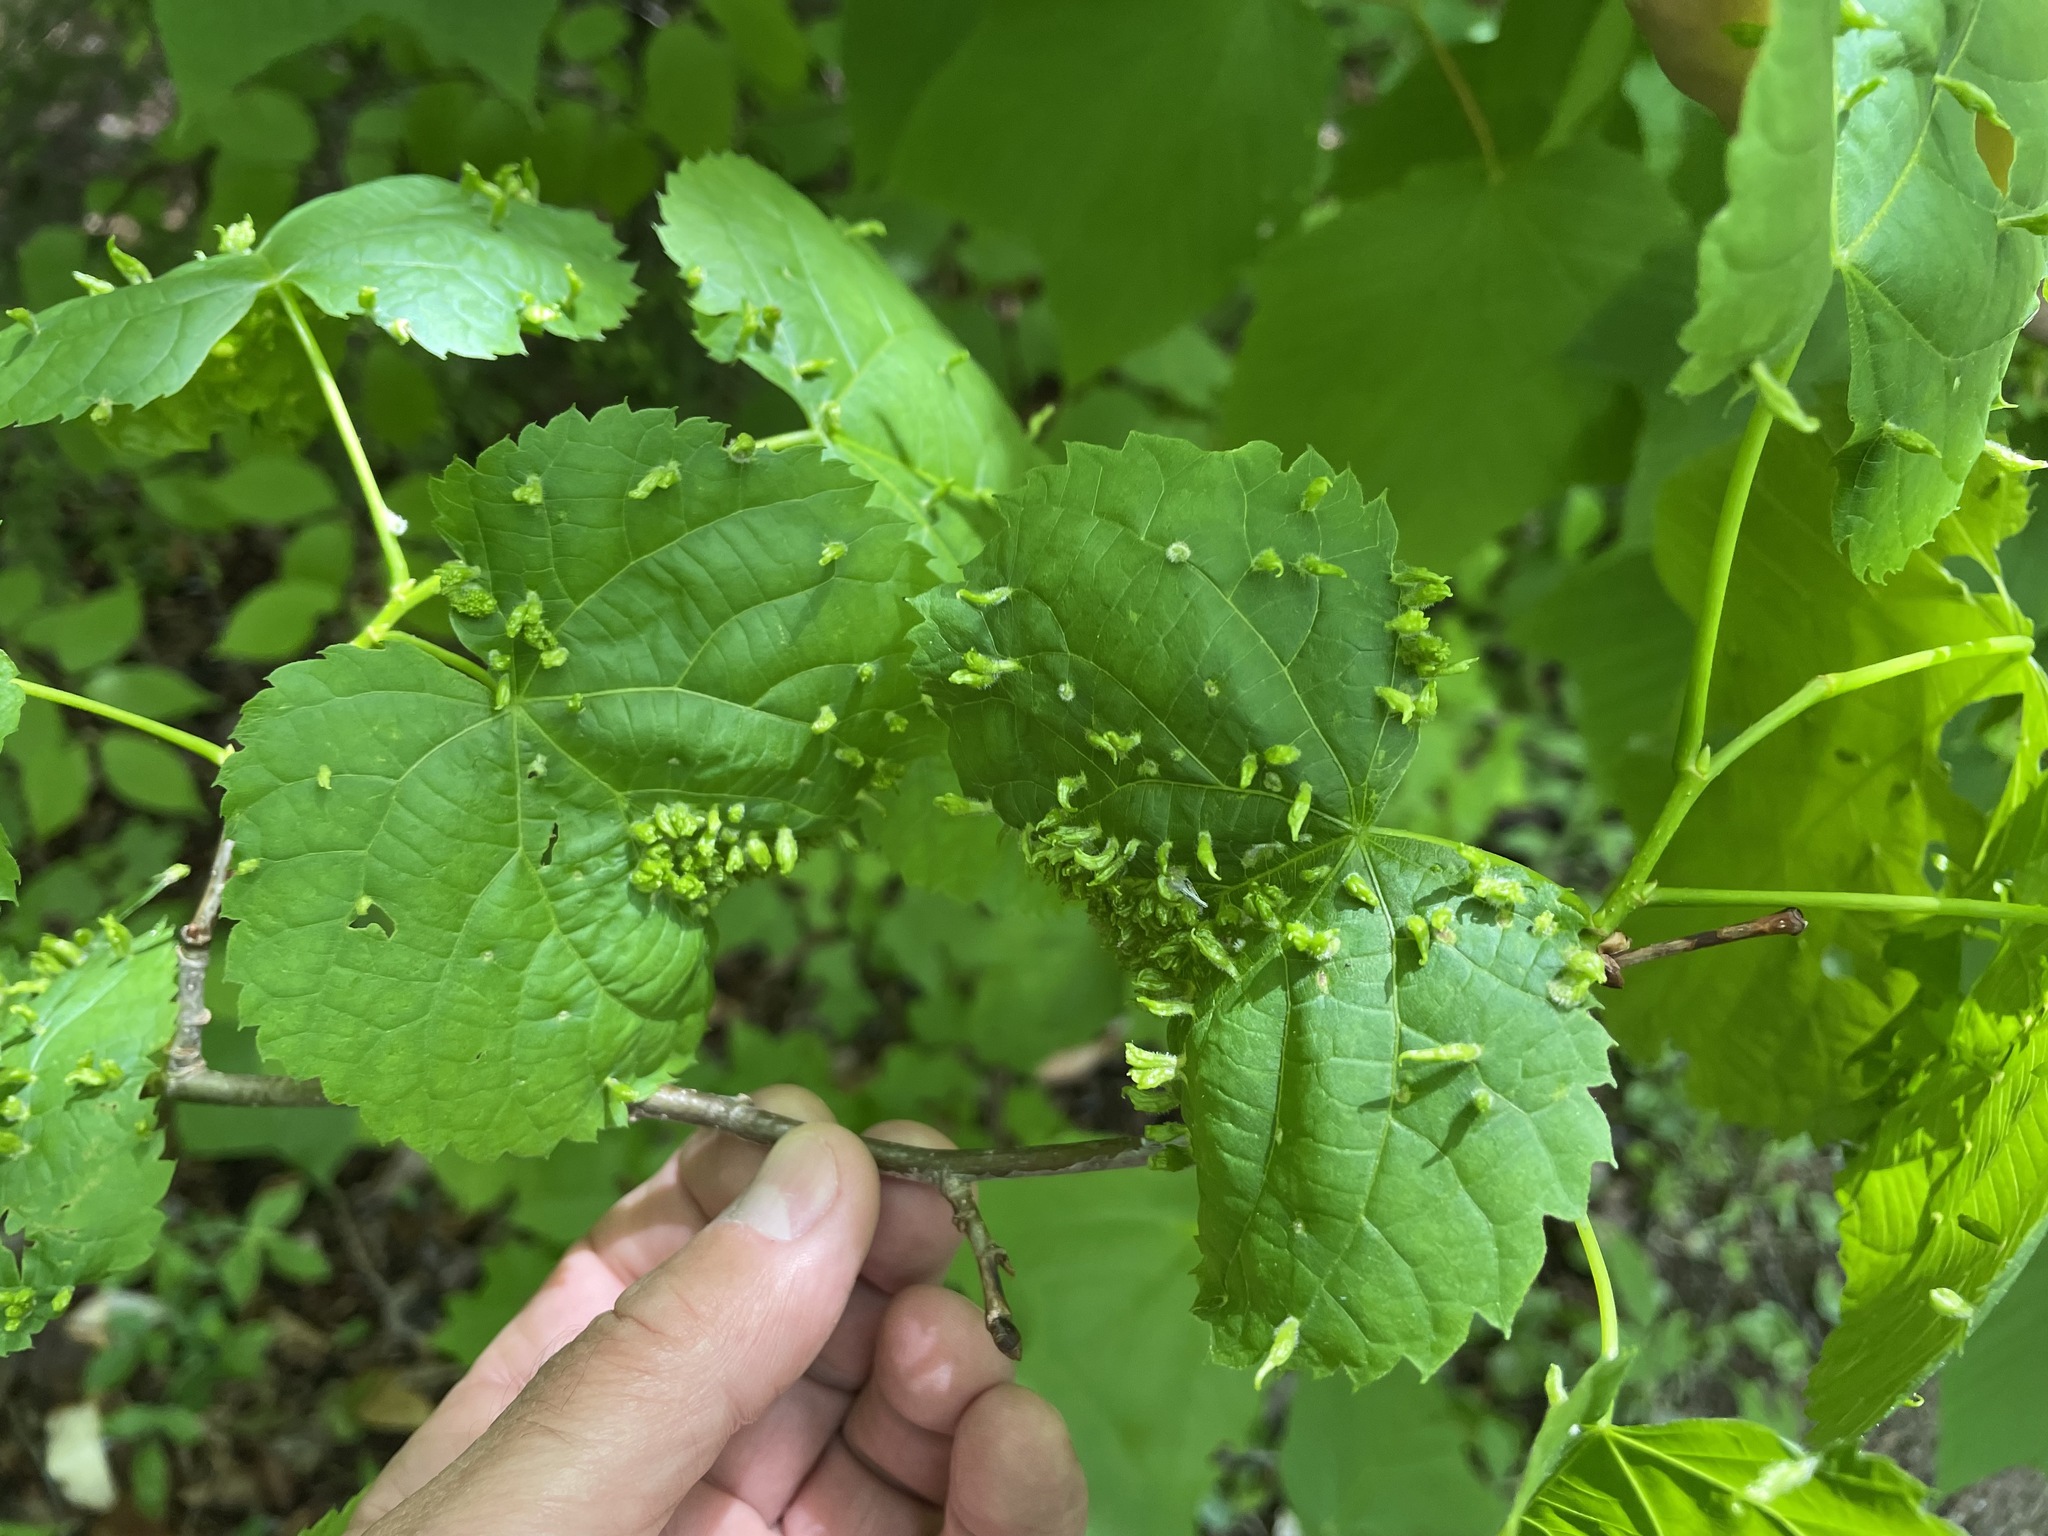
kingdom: Animalia
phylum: Arthropoda
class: Arachnida
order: Trombidiformes
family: Eriophyidae
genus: Eriophyes
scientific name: Eriophyes tiliae
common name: Red nail gall mite
